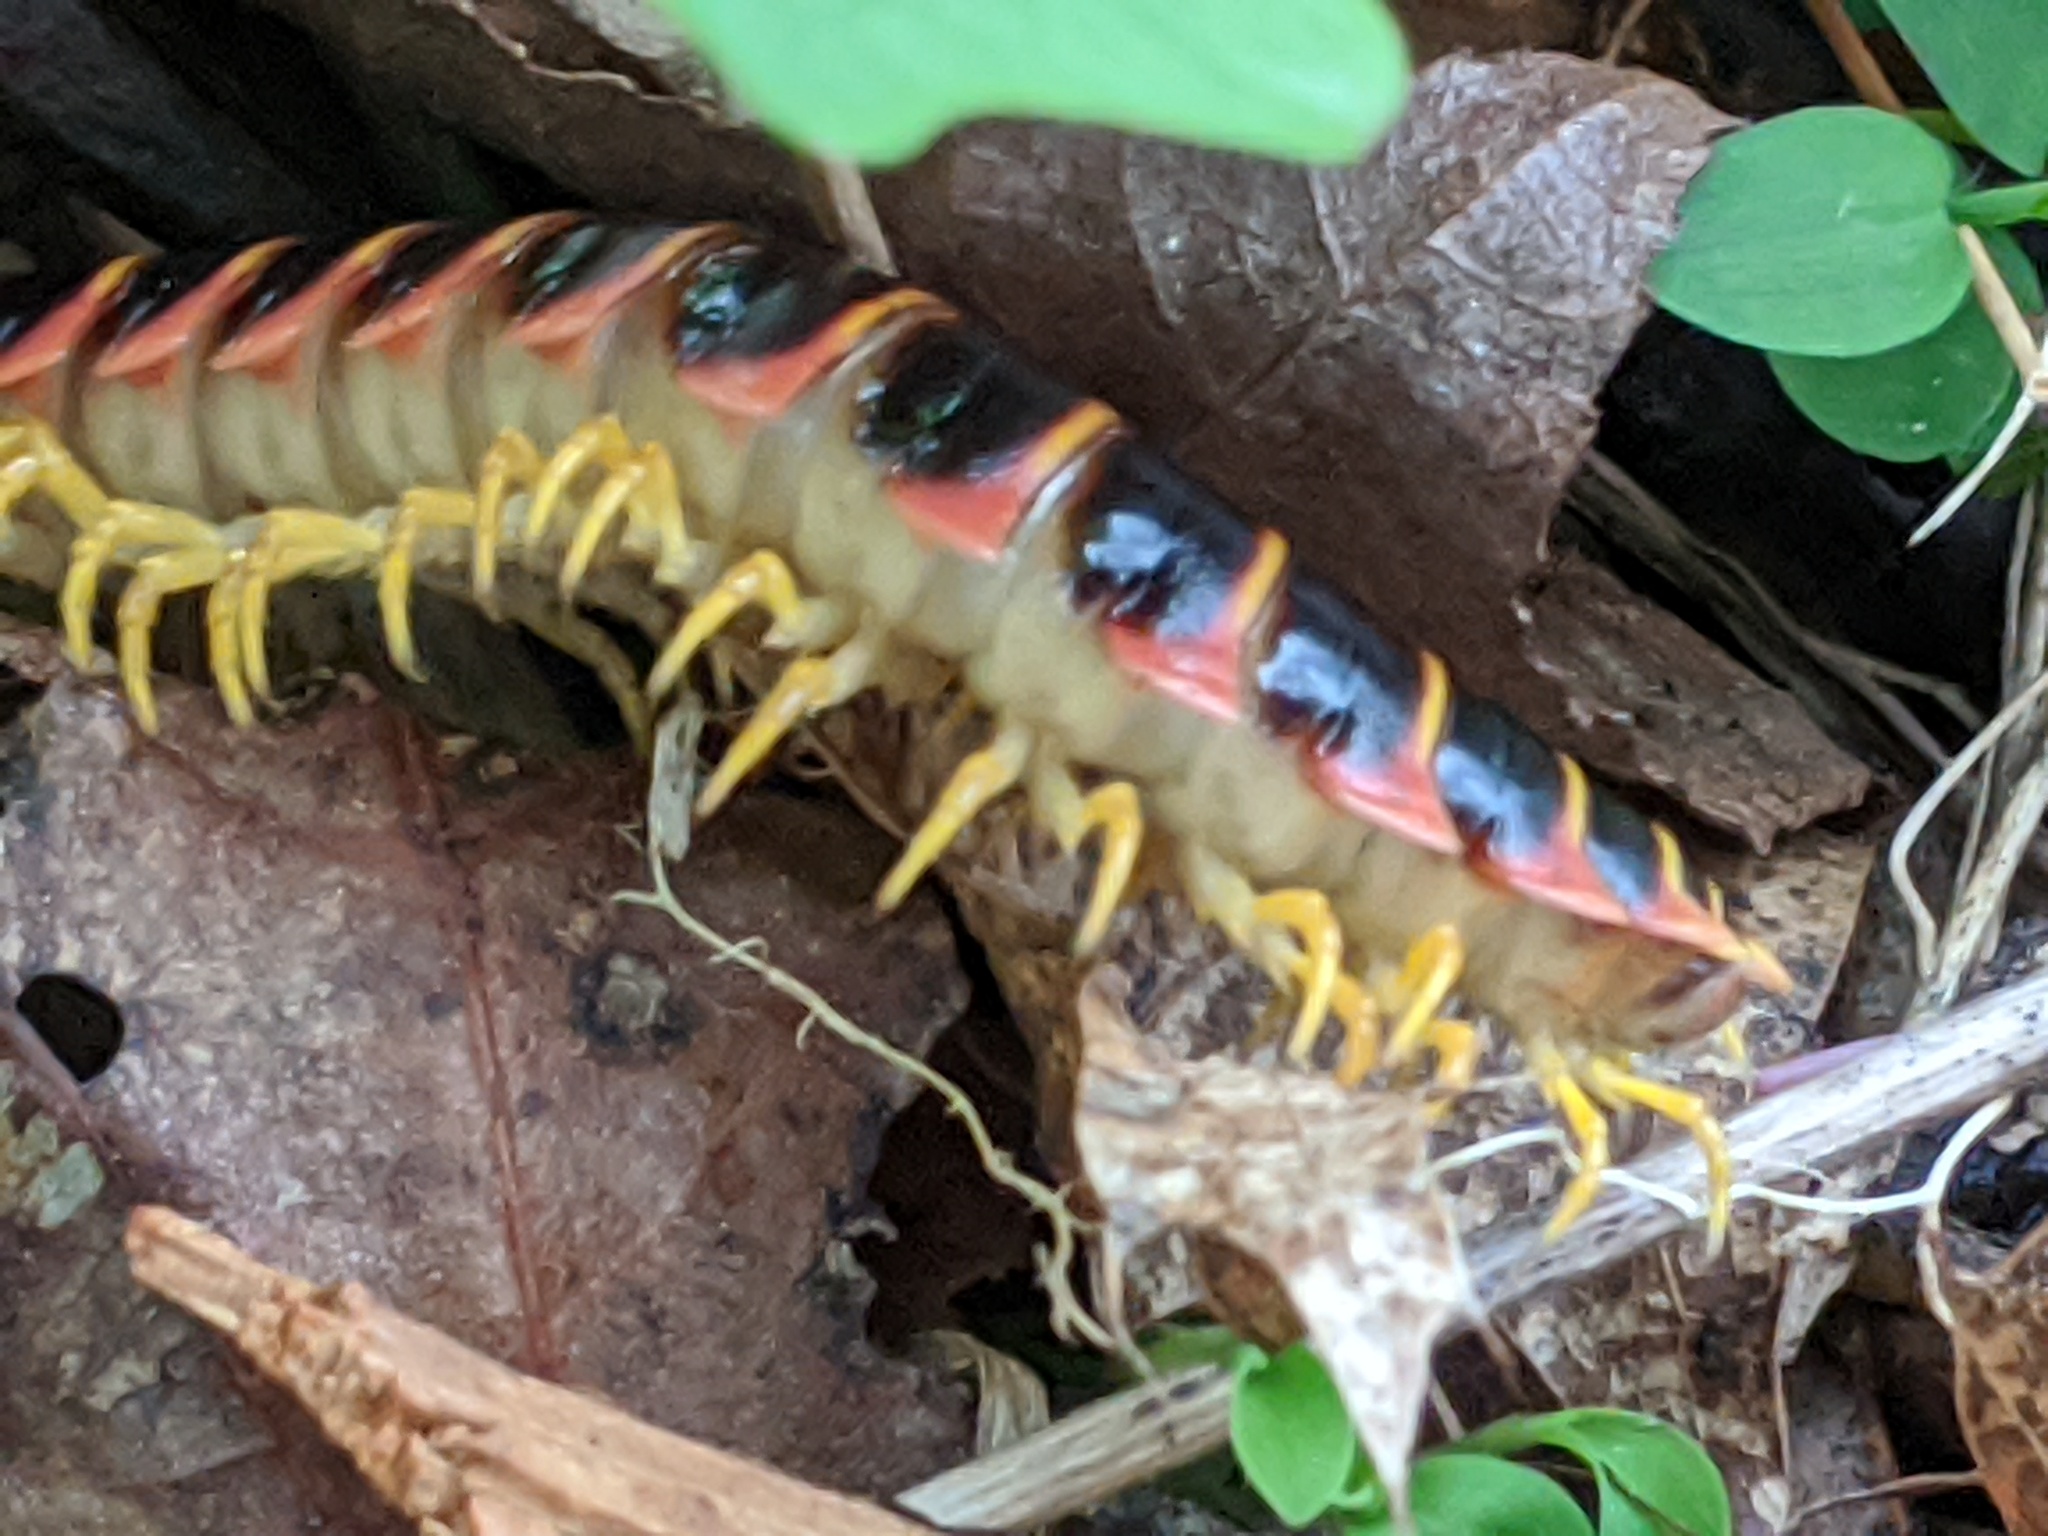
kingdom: Animalia
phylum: Arthropoda
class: Diplopoda
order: Polydesmida
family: Xystodesmidae
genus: Apheloria
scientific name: Apheloria virginiensis
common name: Black-and-gold flat millipede
